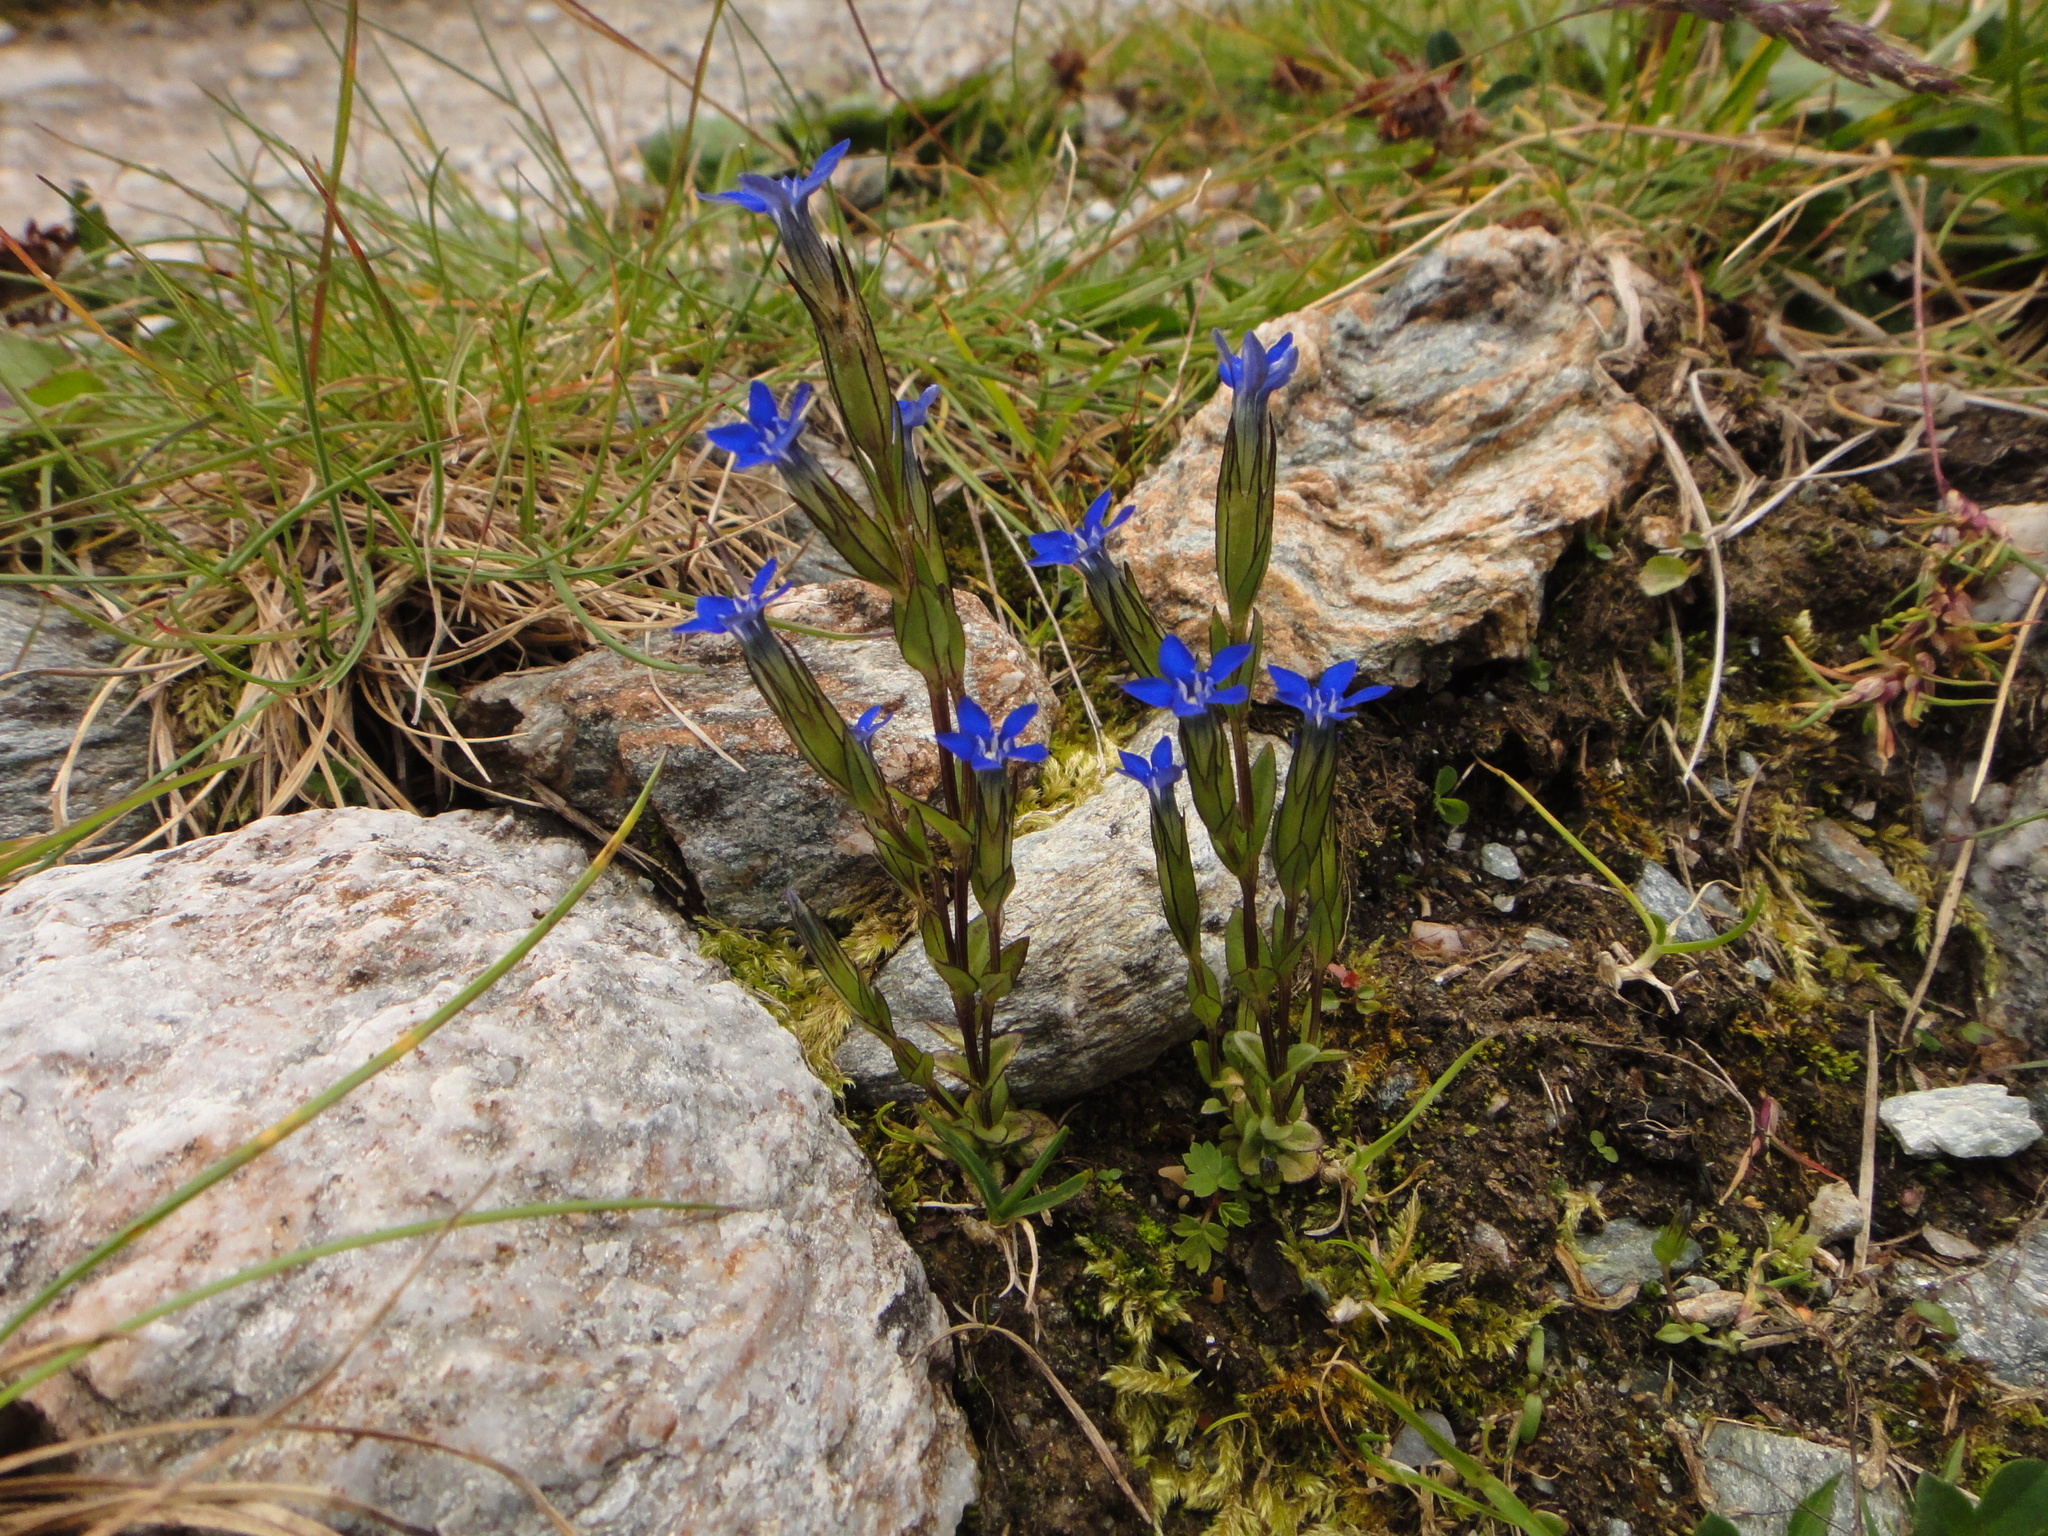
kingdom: Plantae
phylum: Tracheophyta
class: Magnoliopsida
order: Gentianales
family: Gentianaceae
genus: Gentiana
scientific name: Gentiana nivalis
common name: Alpine gentian
